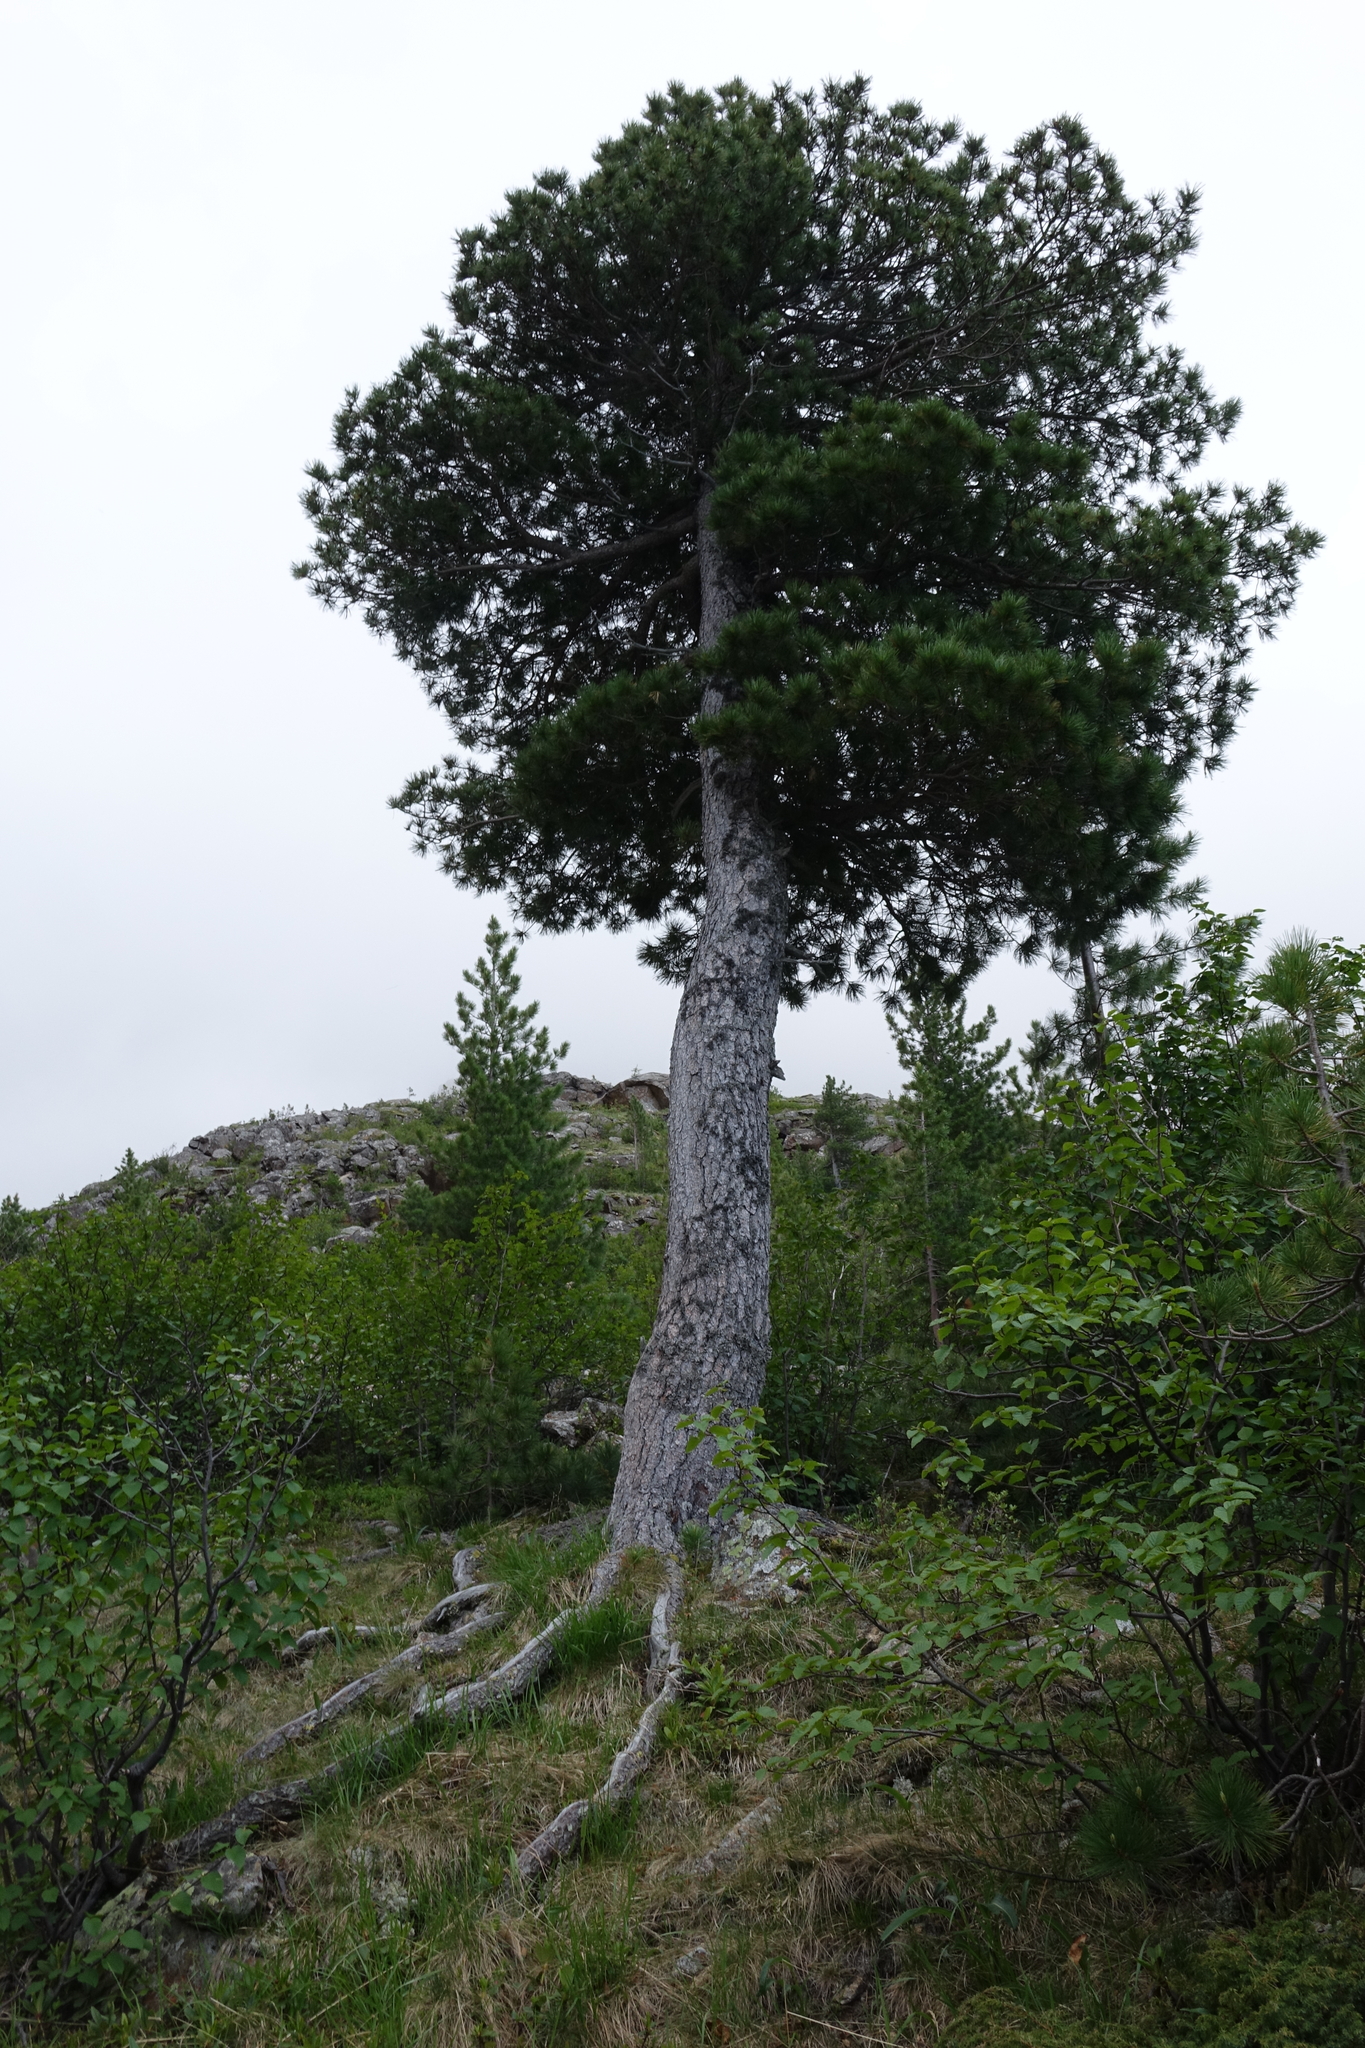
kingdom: Plantae
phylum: Tracheophyta
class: Pinopsida
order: Pinales
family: Pinaceae
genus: Pinus
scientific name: Pinus sibirica
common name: Siberian pine
